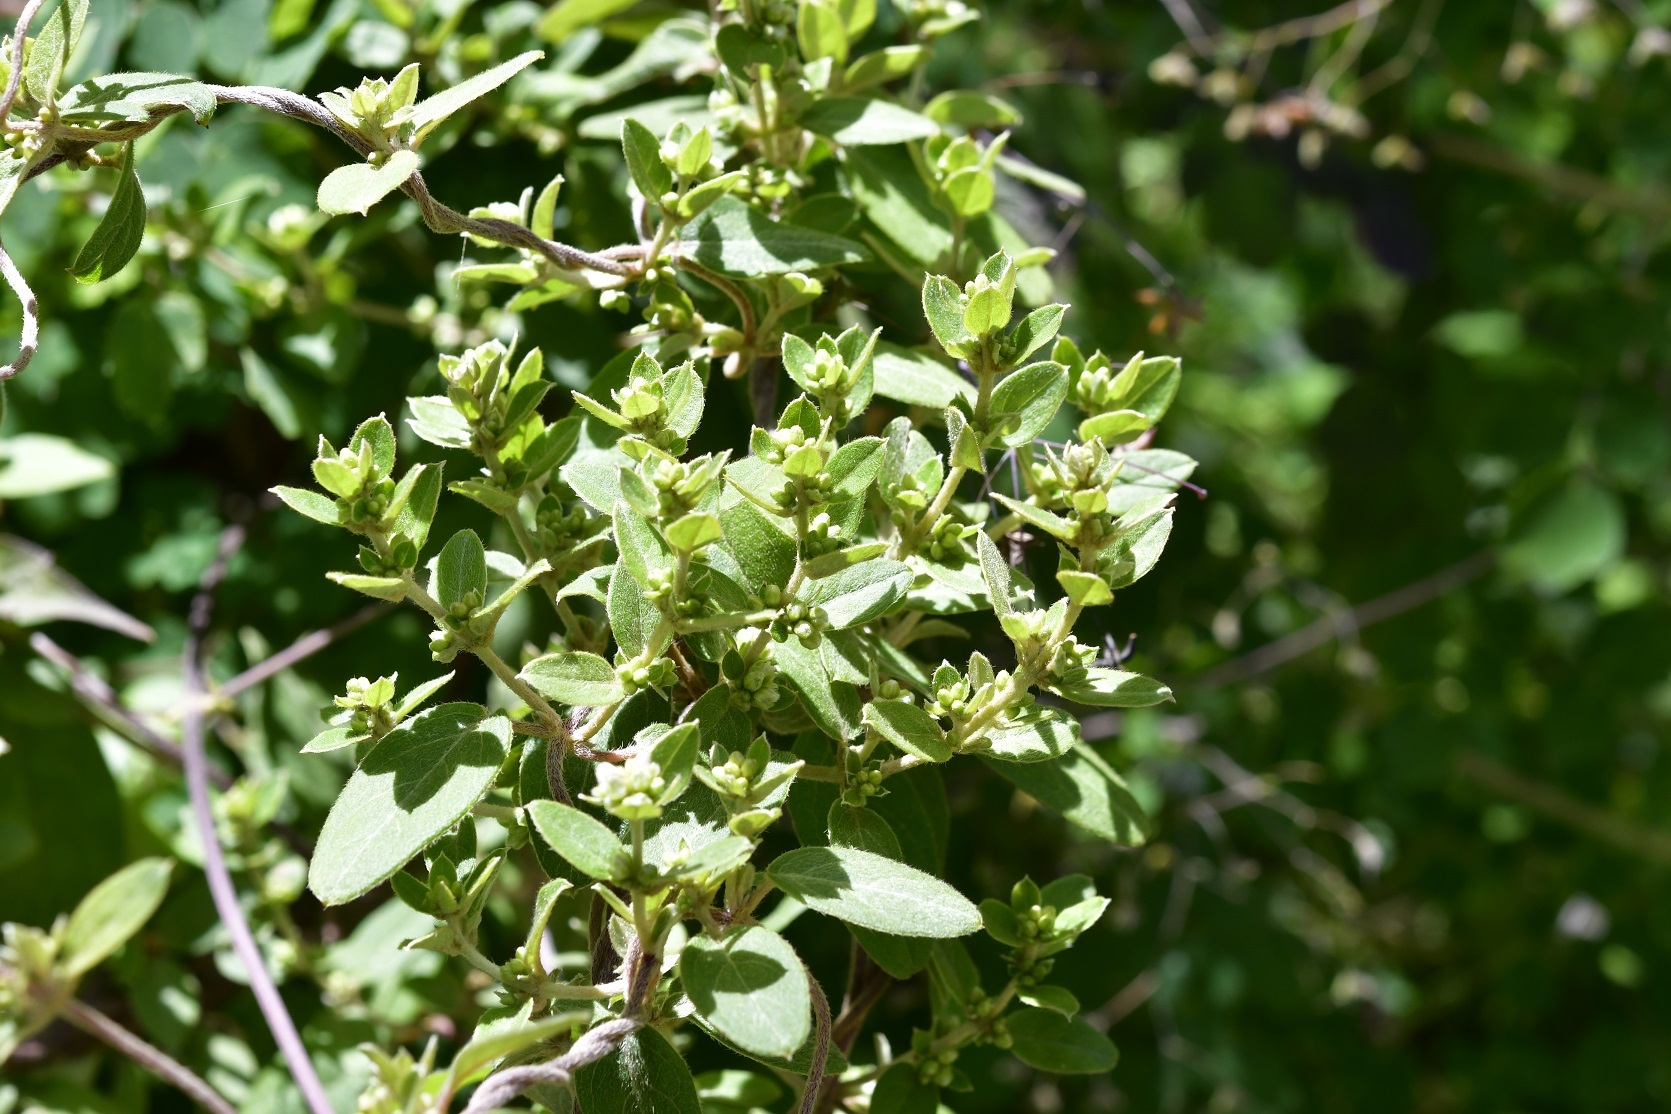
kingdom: Plantae
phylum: Tracheophyta
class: Magnoliopsida
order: Malpighiales
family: Malpighiaceae
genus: Gaudichaudia
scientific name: Gaudichaudia cynanchoides
